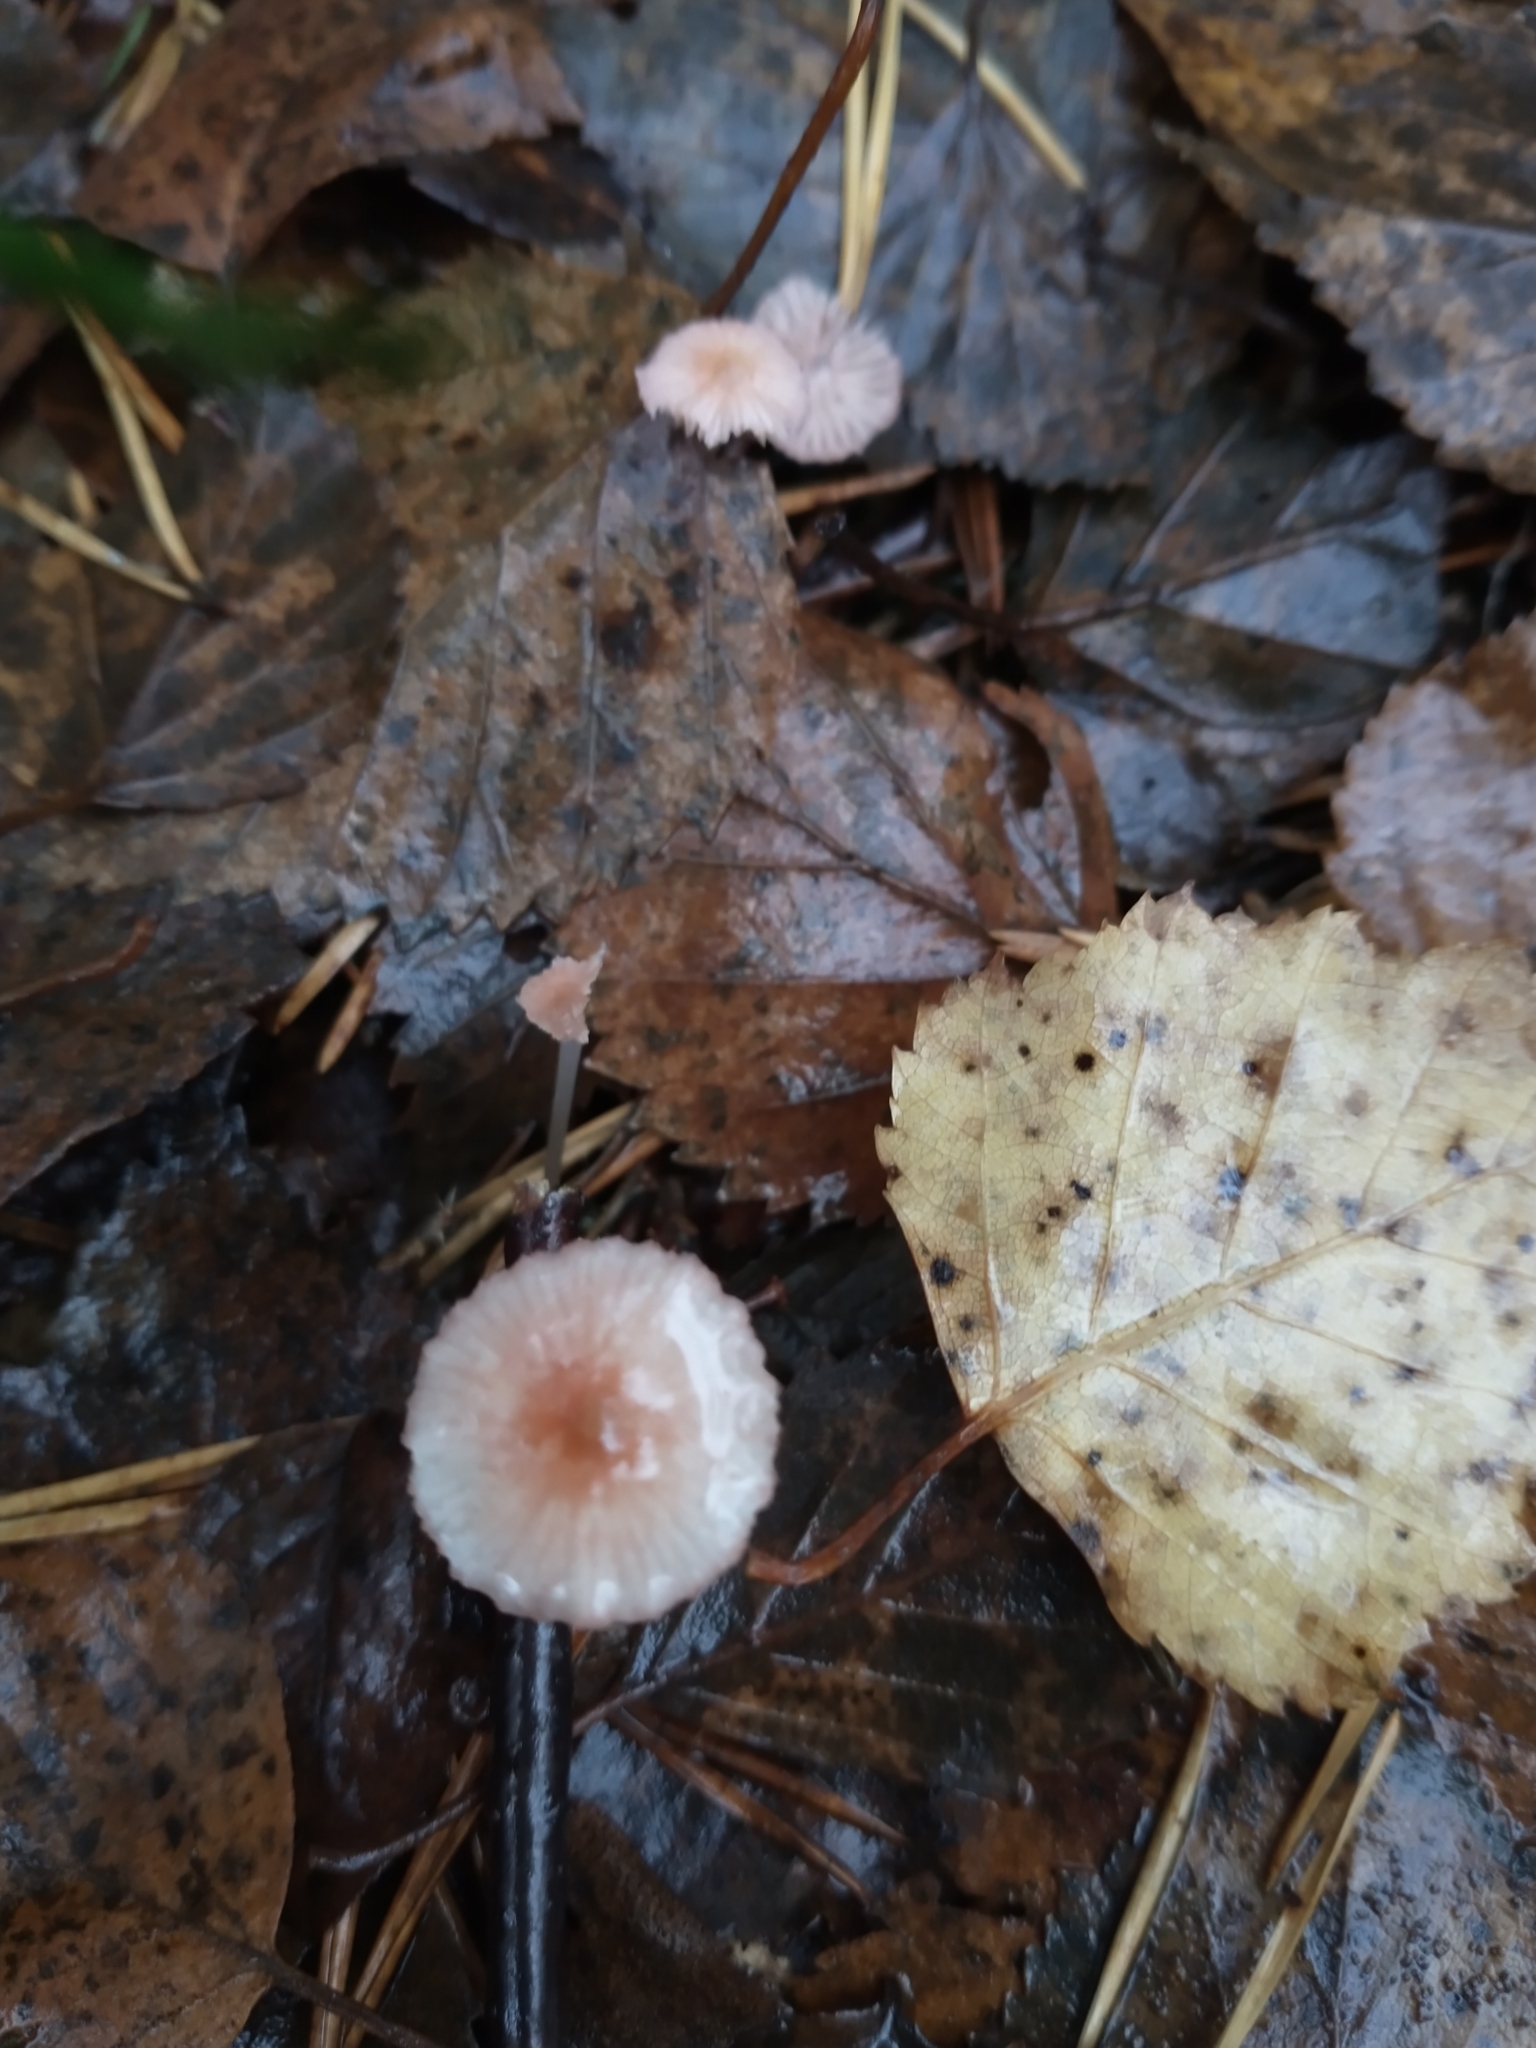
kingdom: Fungi
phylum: Basidiomycota
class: Agaricomycetes
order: Agaricales
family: Mycenaceae
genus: Mycena
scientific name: Mycena rosella
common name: Pink bonnet
